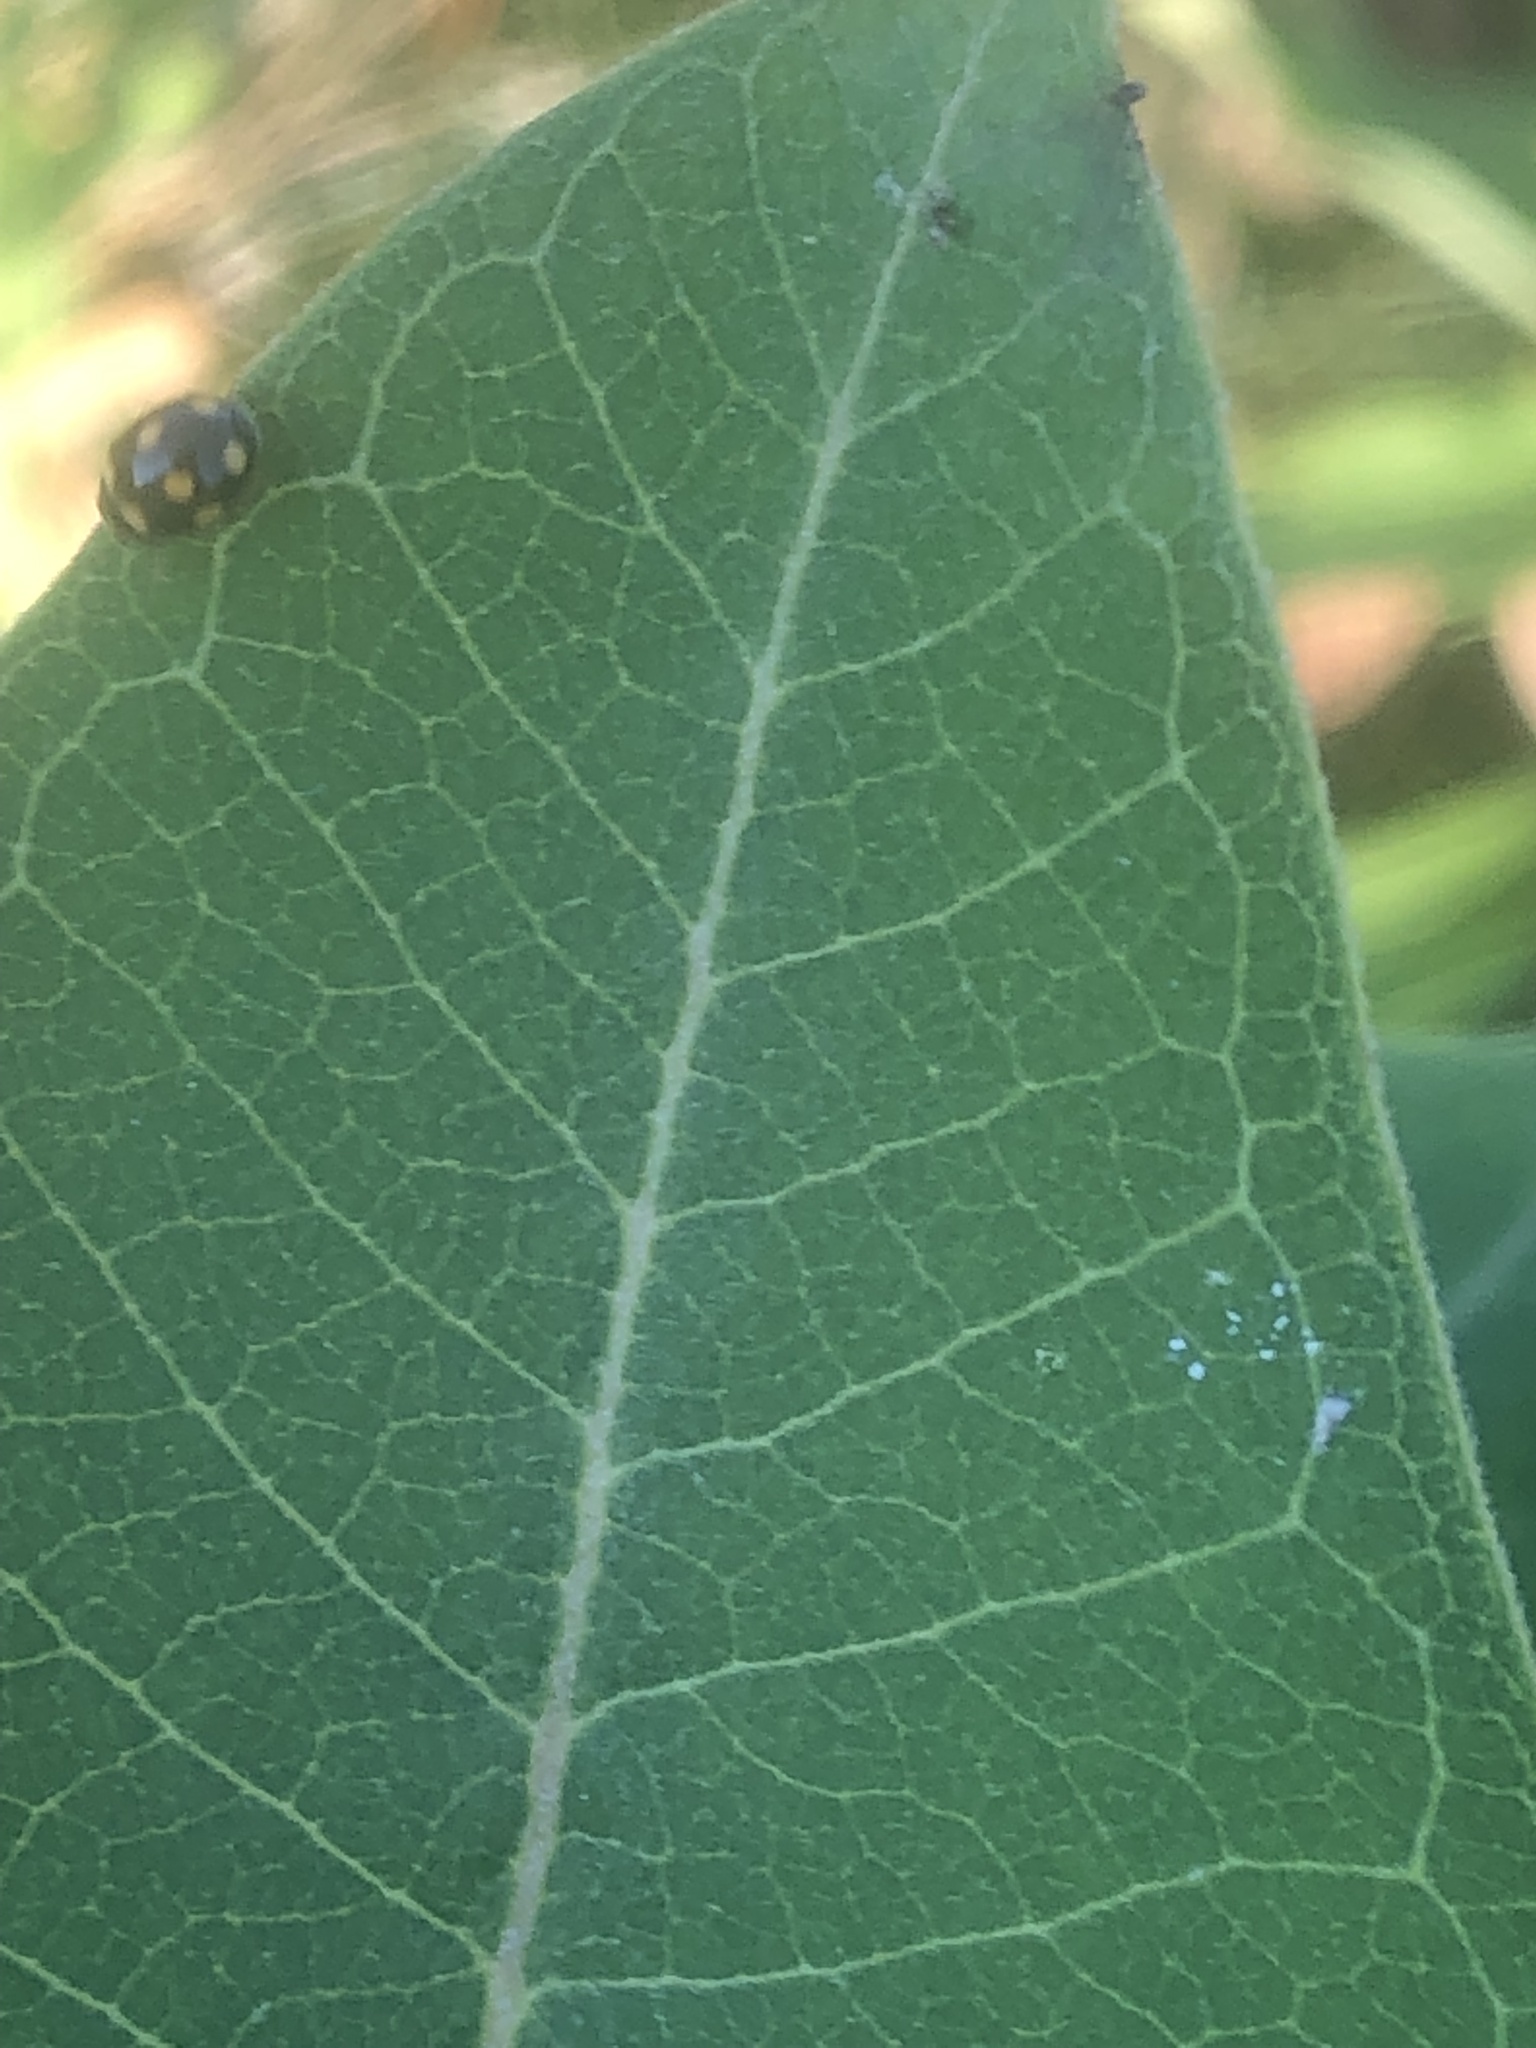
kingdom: Animalia
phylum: Arthropoda
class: Insecta
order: Coleoptera
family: Coccinellidae
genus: Brachiacantha
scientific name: Brachiacantha ursina
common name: Ursine spurleg lady beetle
